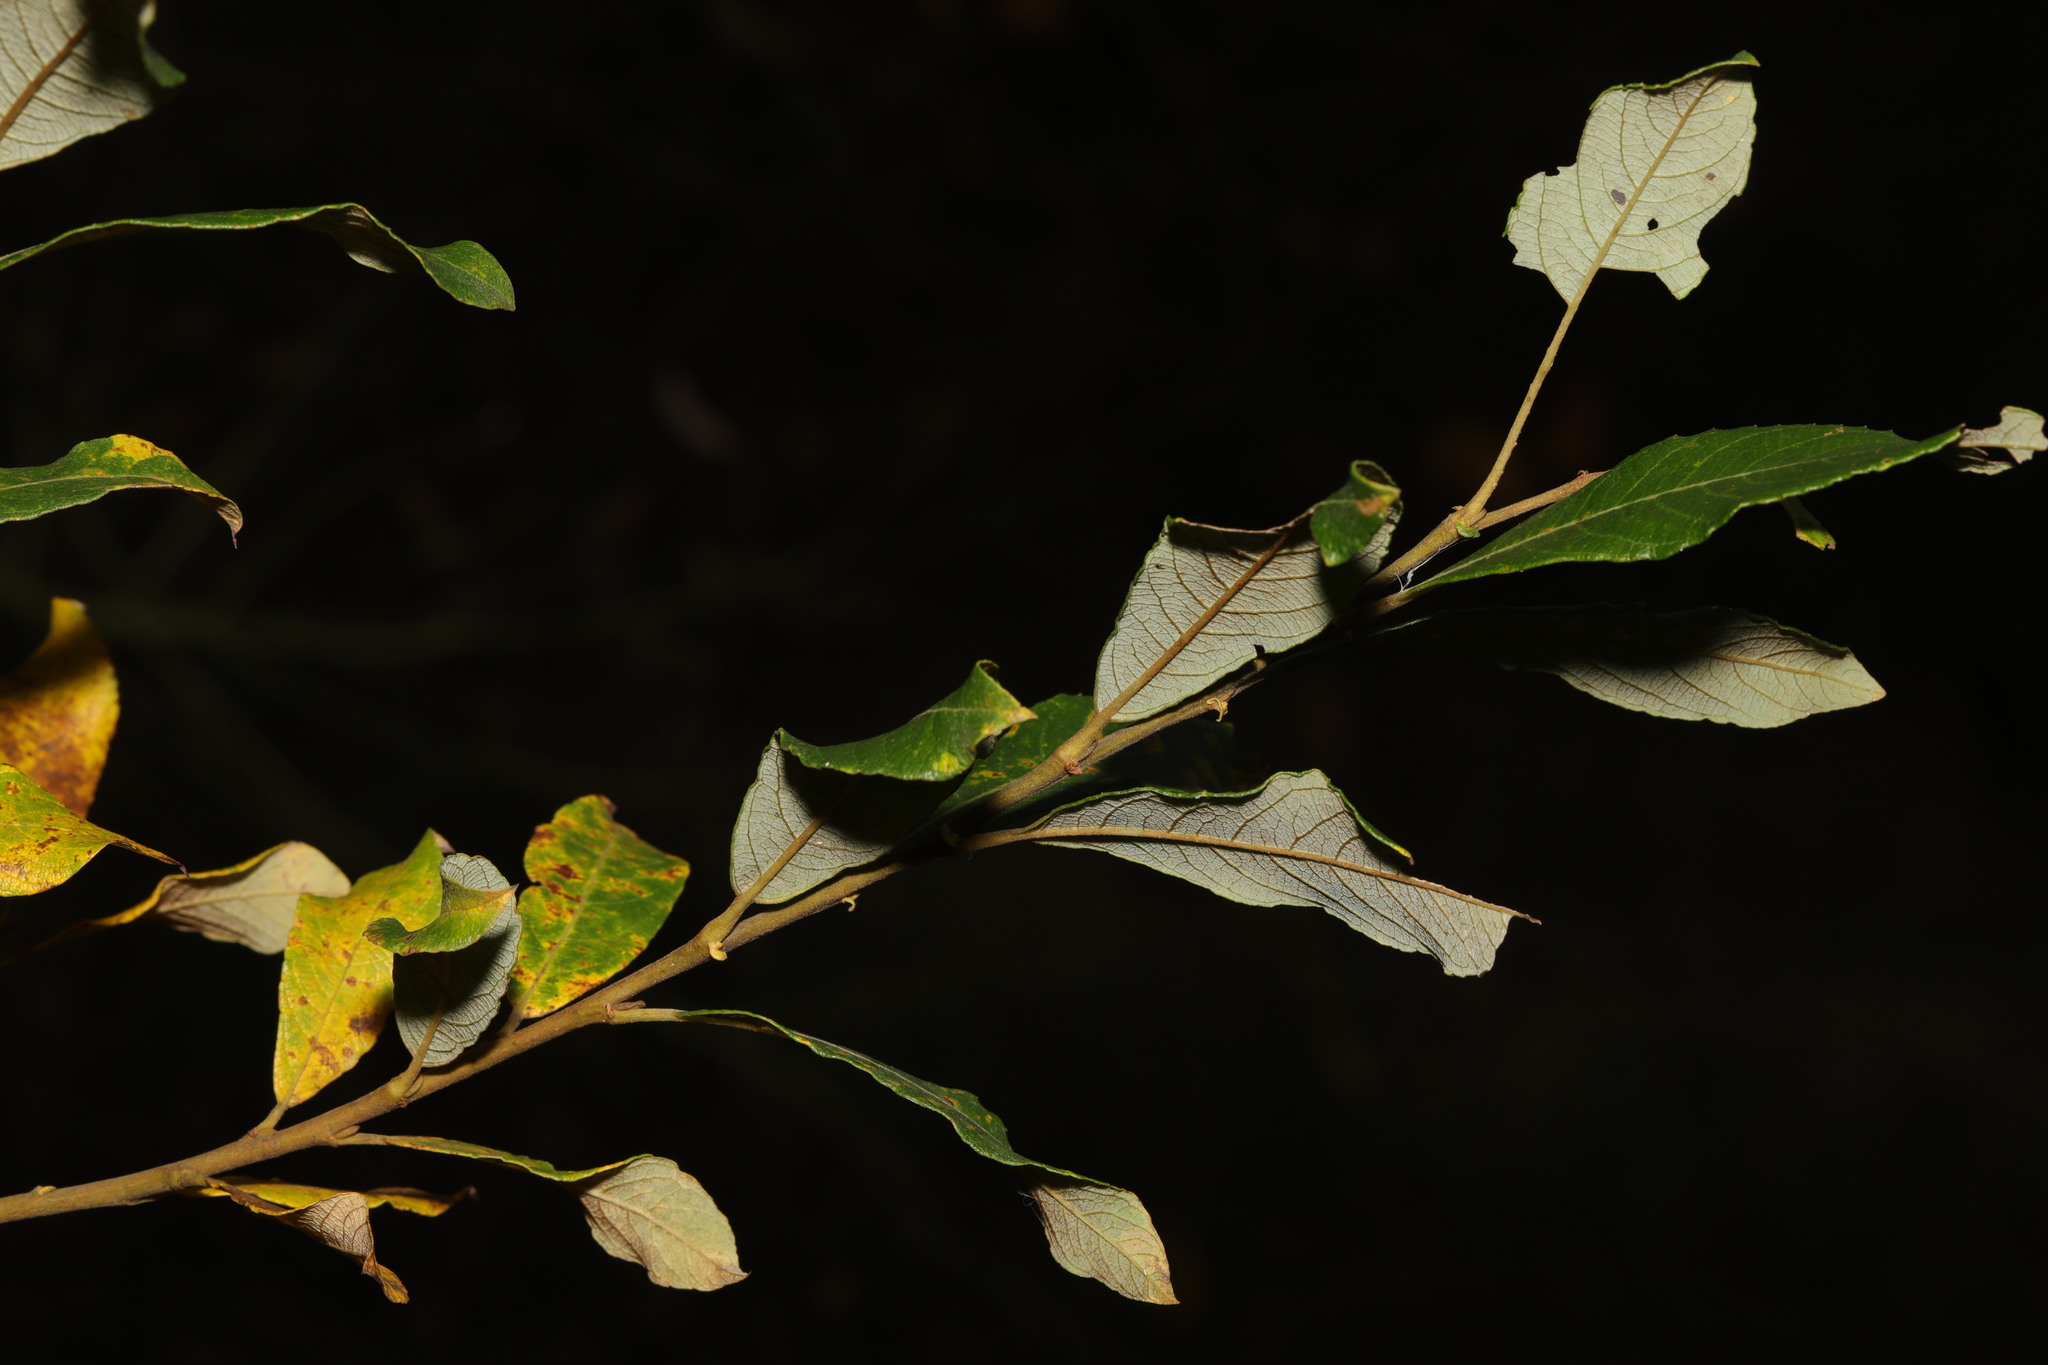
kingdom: Plantae
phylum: Tracheophyta
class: Magnoliopsida
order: Malpighiales
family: Salicaceae
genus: Salix
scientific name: Salix atrocinerea
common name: Rusty willow
